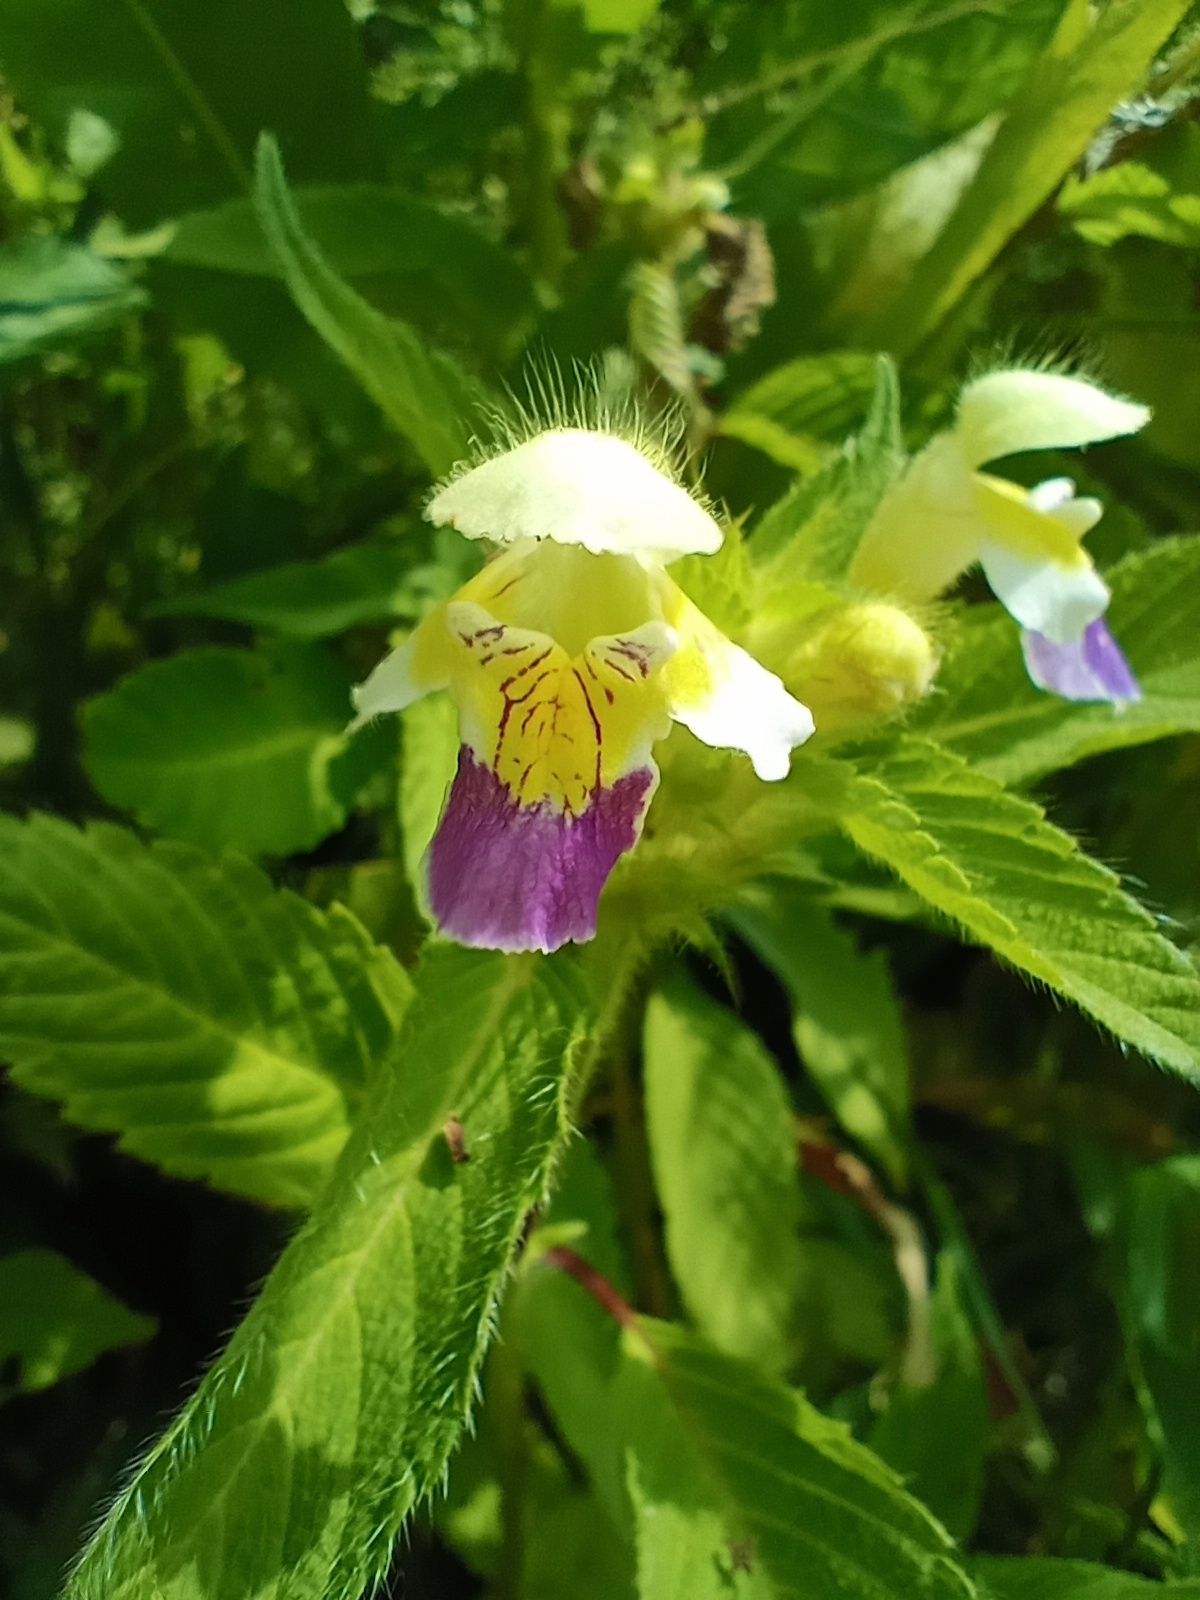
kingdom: Plantae
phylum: Tracheophyta
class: Magnoliopsida
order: Lamiales
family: Lamiaceae
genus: Galeopsis
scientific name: Galeopsis speciosa
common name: Large-flowered hemp-nettle
